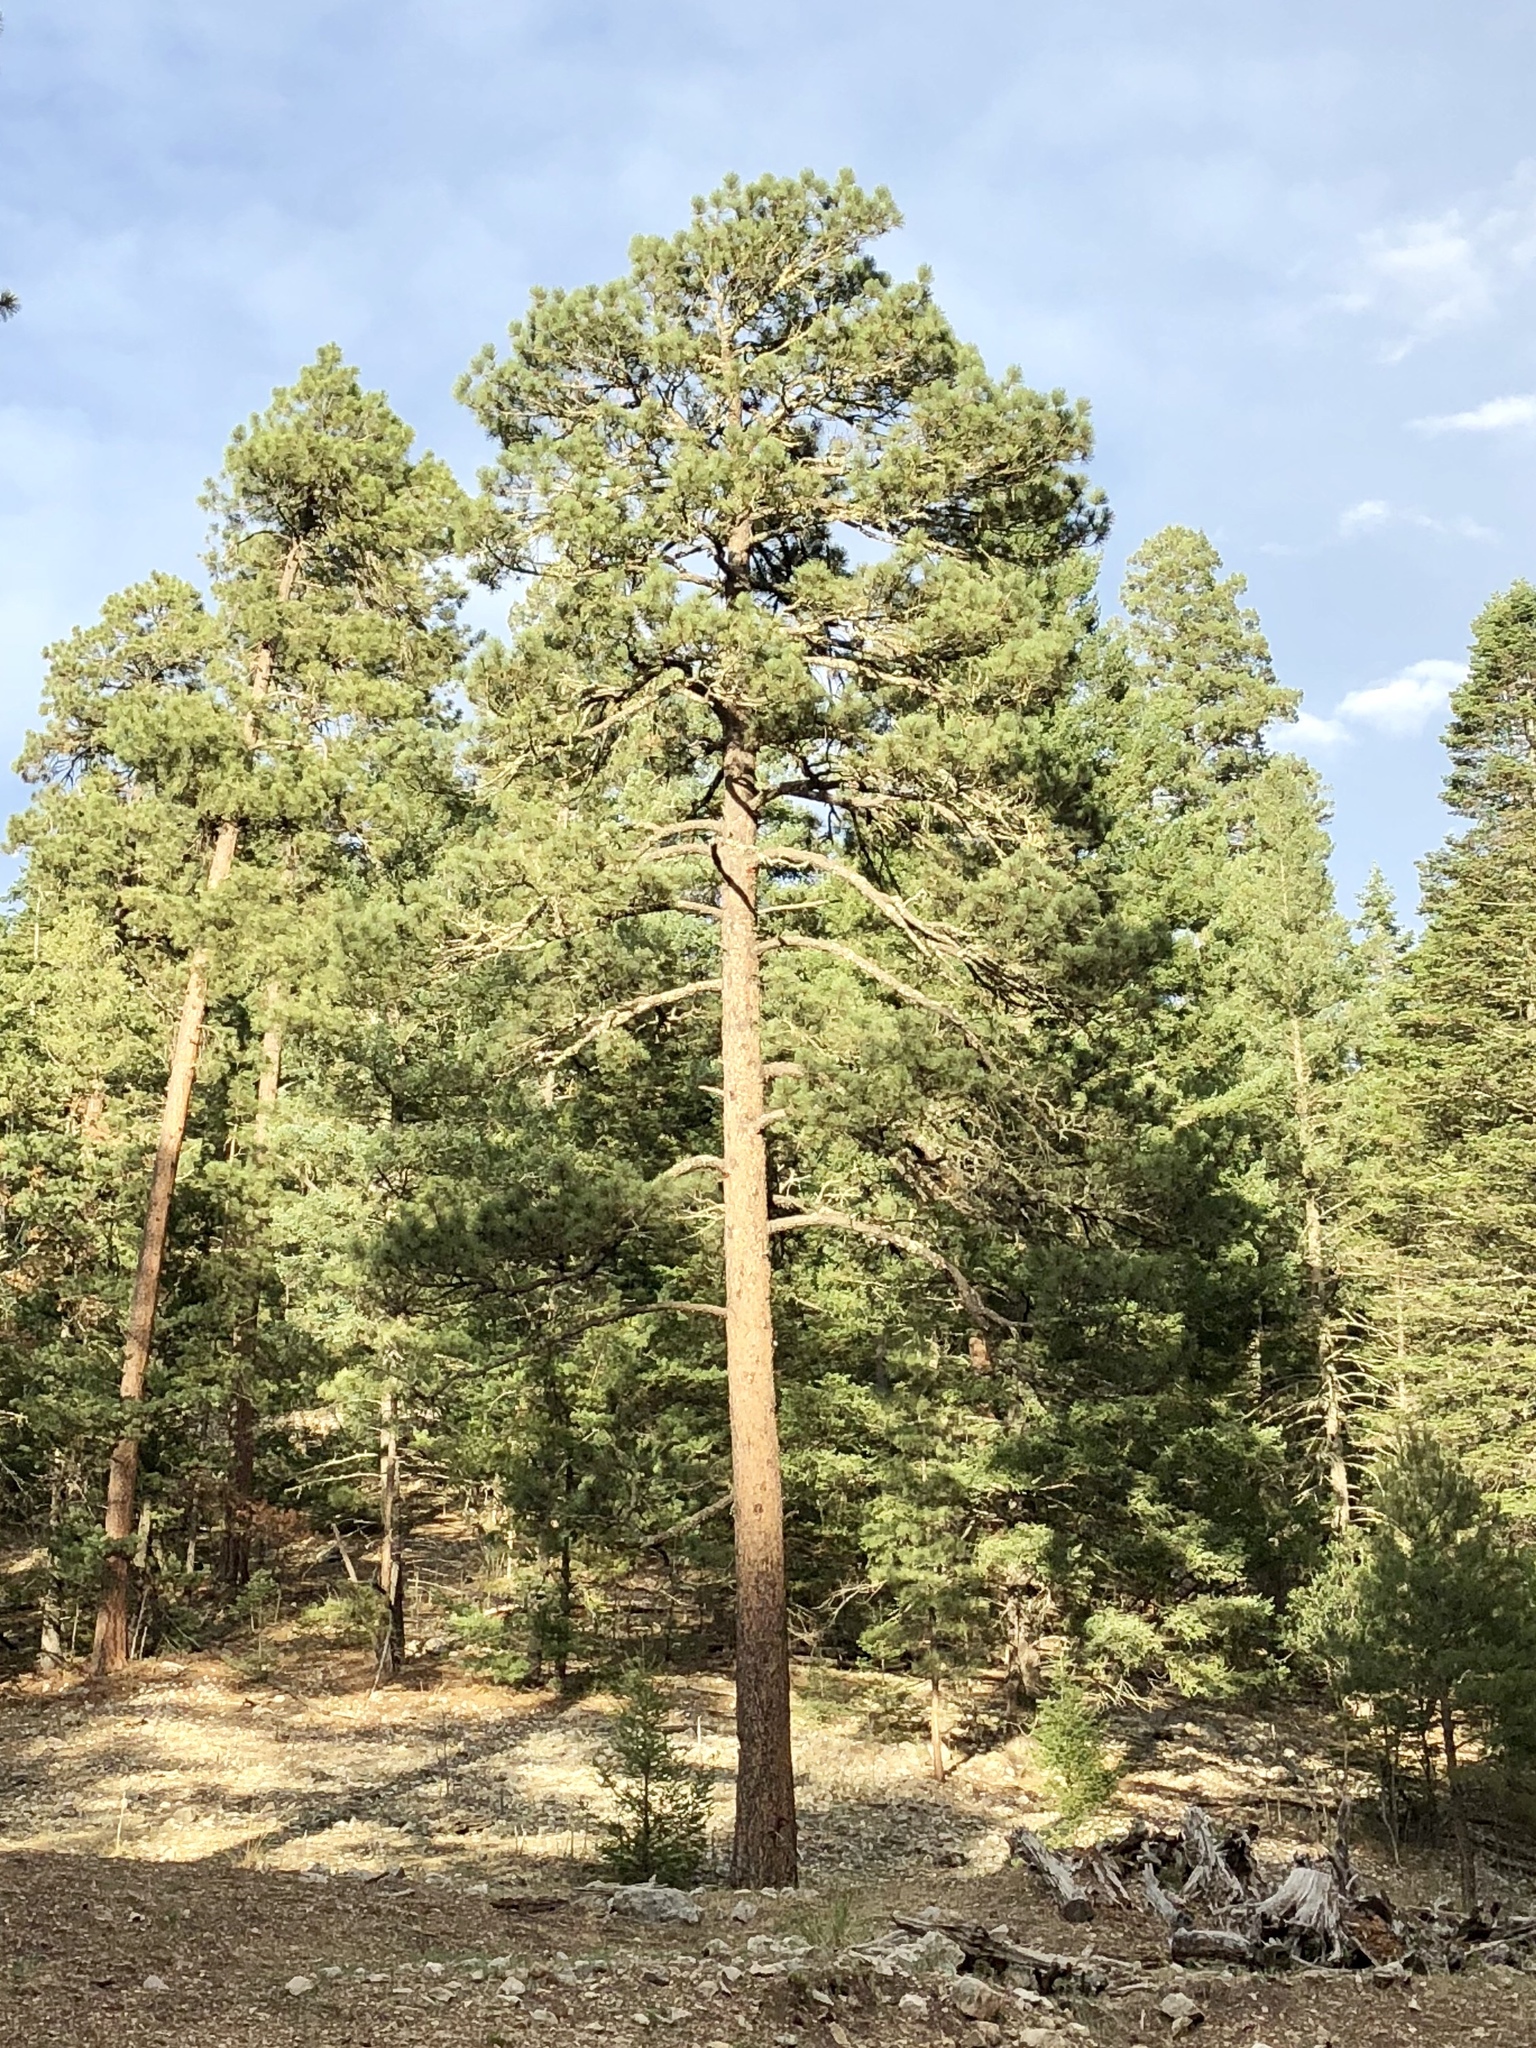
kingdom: Plantae
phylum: Tracheophyta
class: Pinopsida
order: Pinales
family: Pinaceae
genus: Pinus
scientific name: Pinus ponderosa
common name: Western yellow-pine
